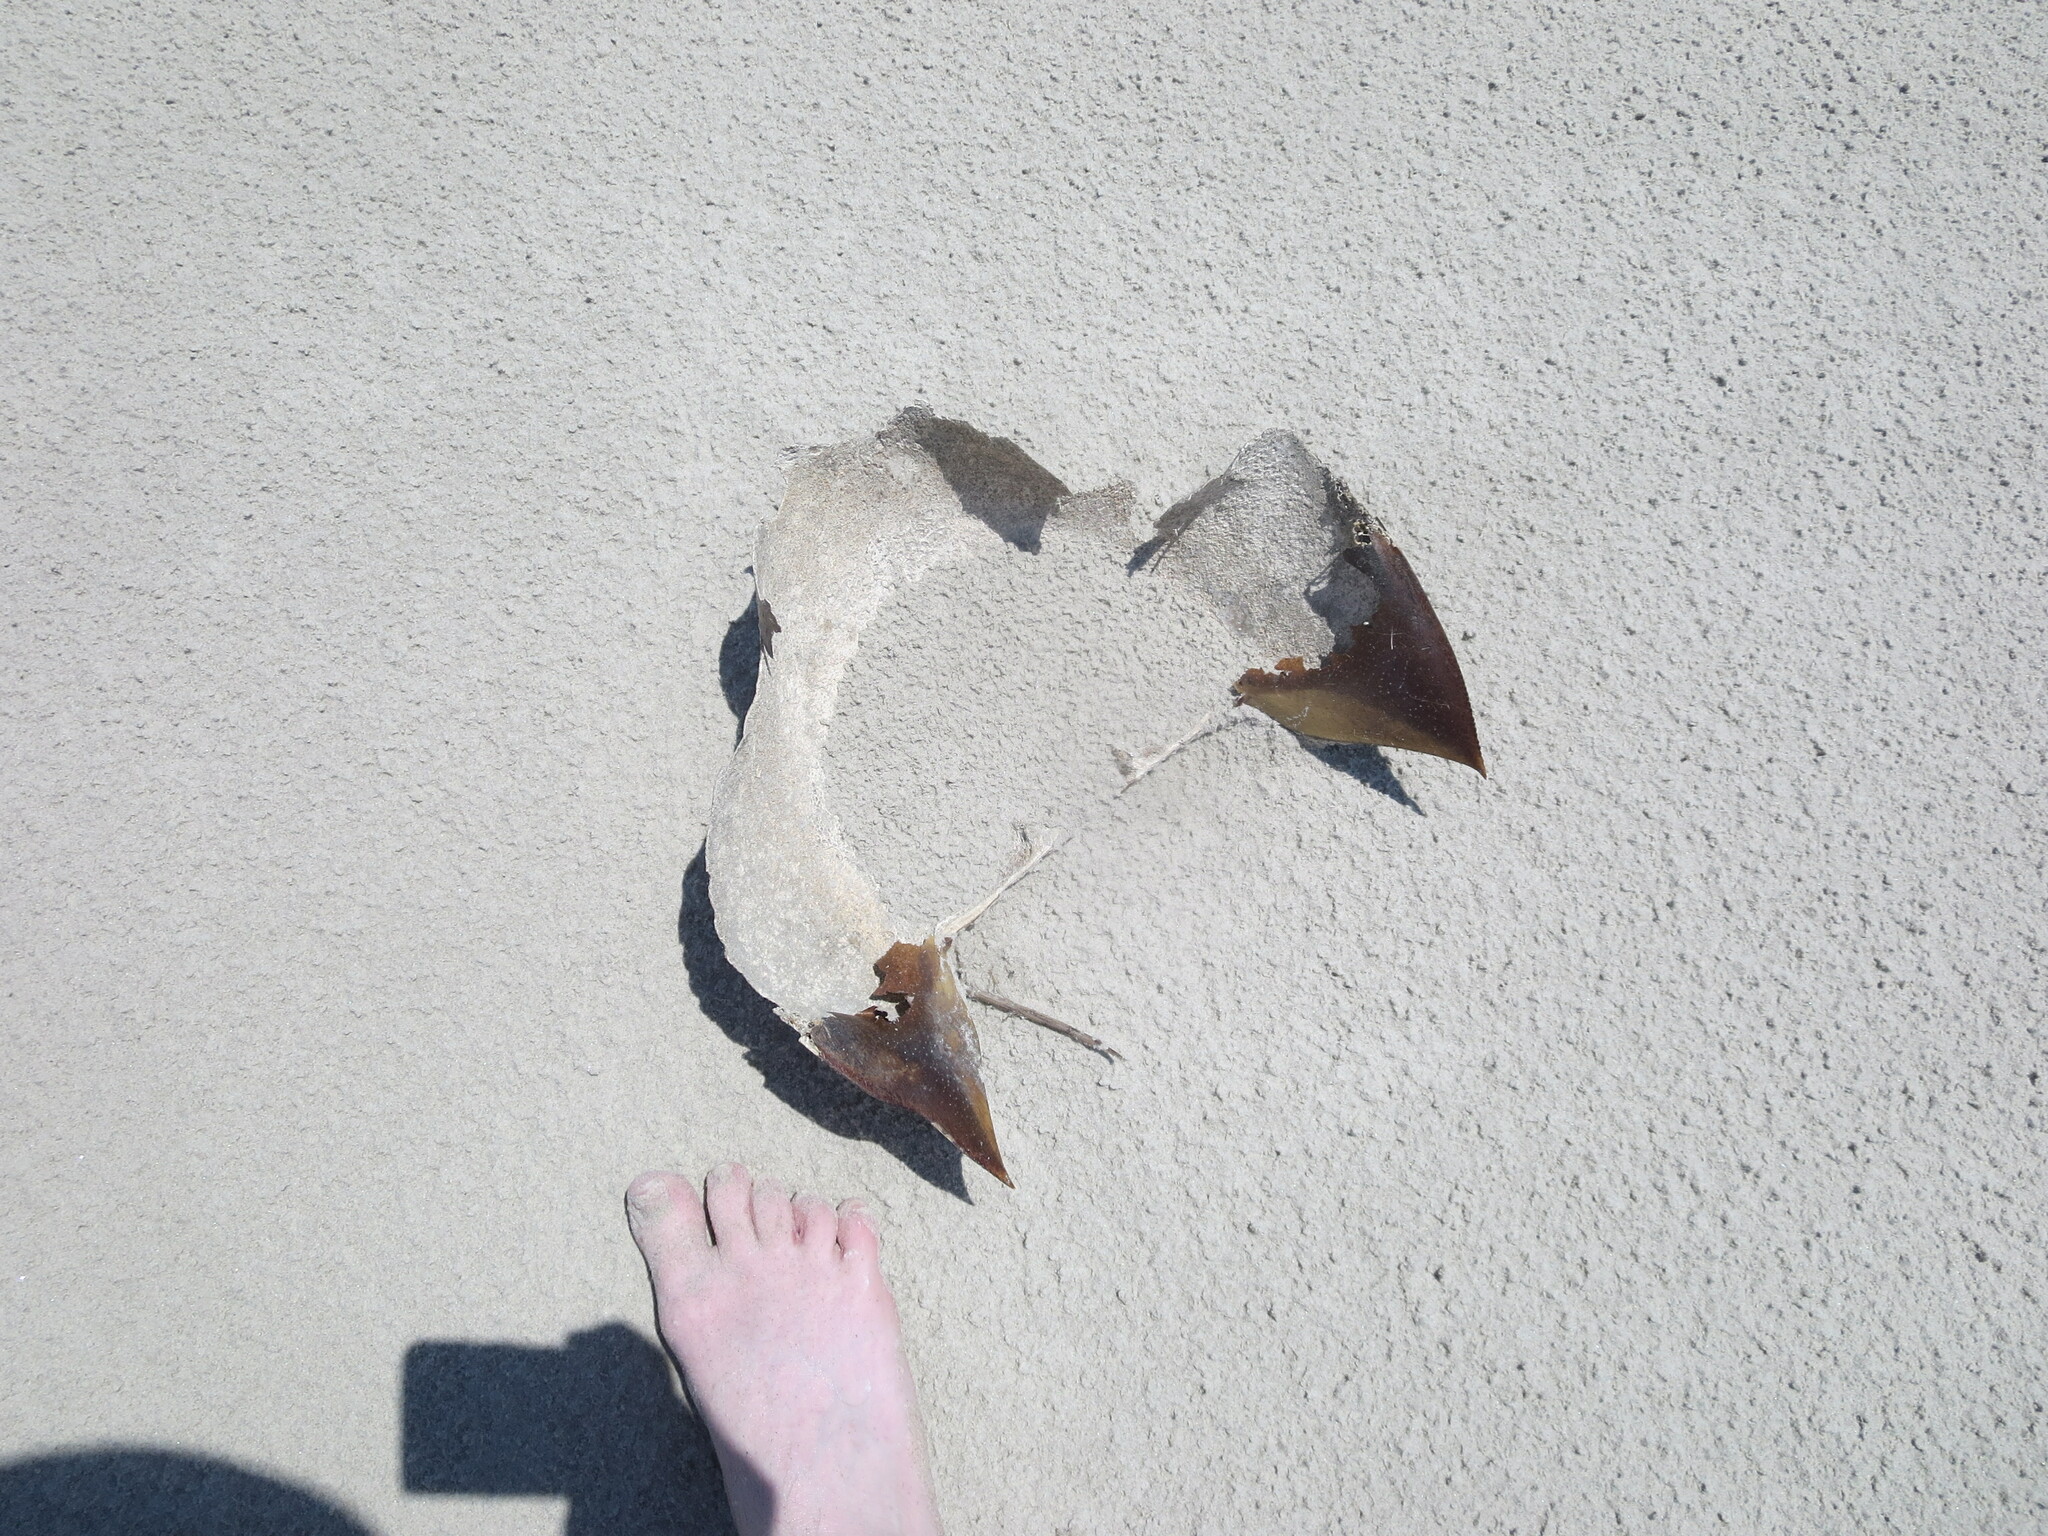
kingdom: Animalia
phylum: Arthropoda
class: Merostomata
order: Xiphosurida
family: Limulidae
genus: Limulus
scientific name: Limulus polyphemus
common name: Horseshoe crab
